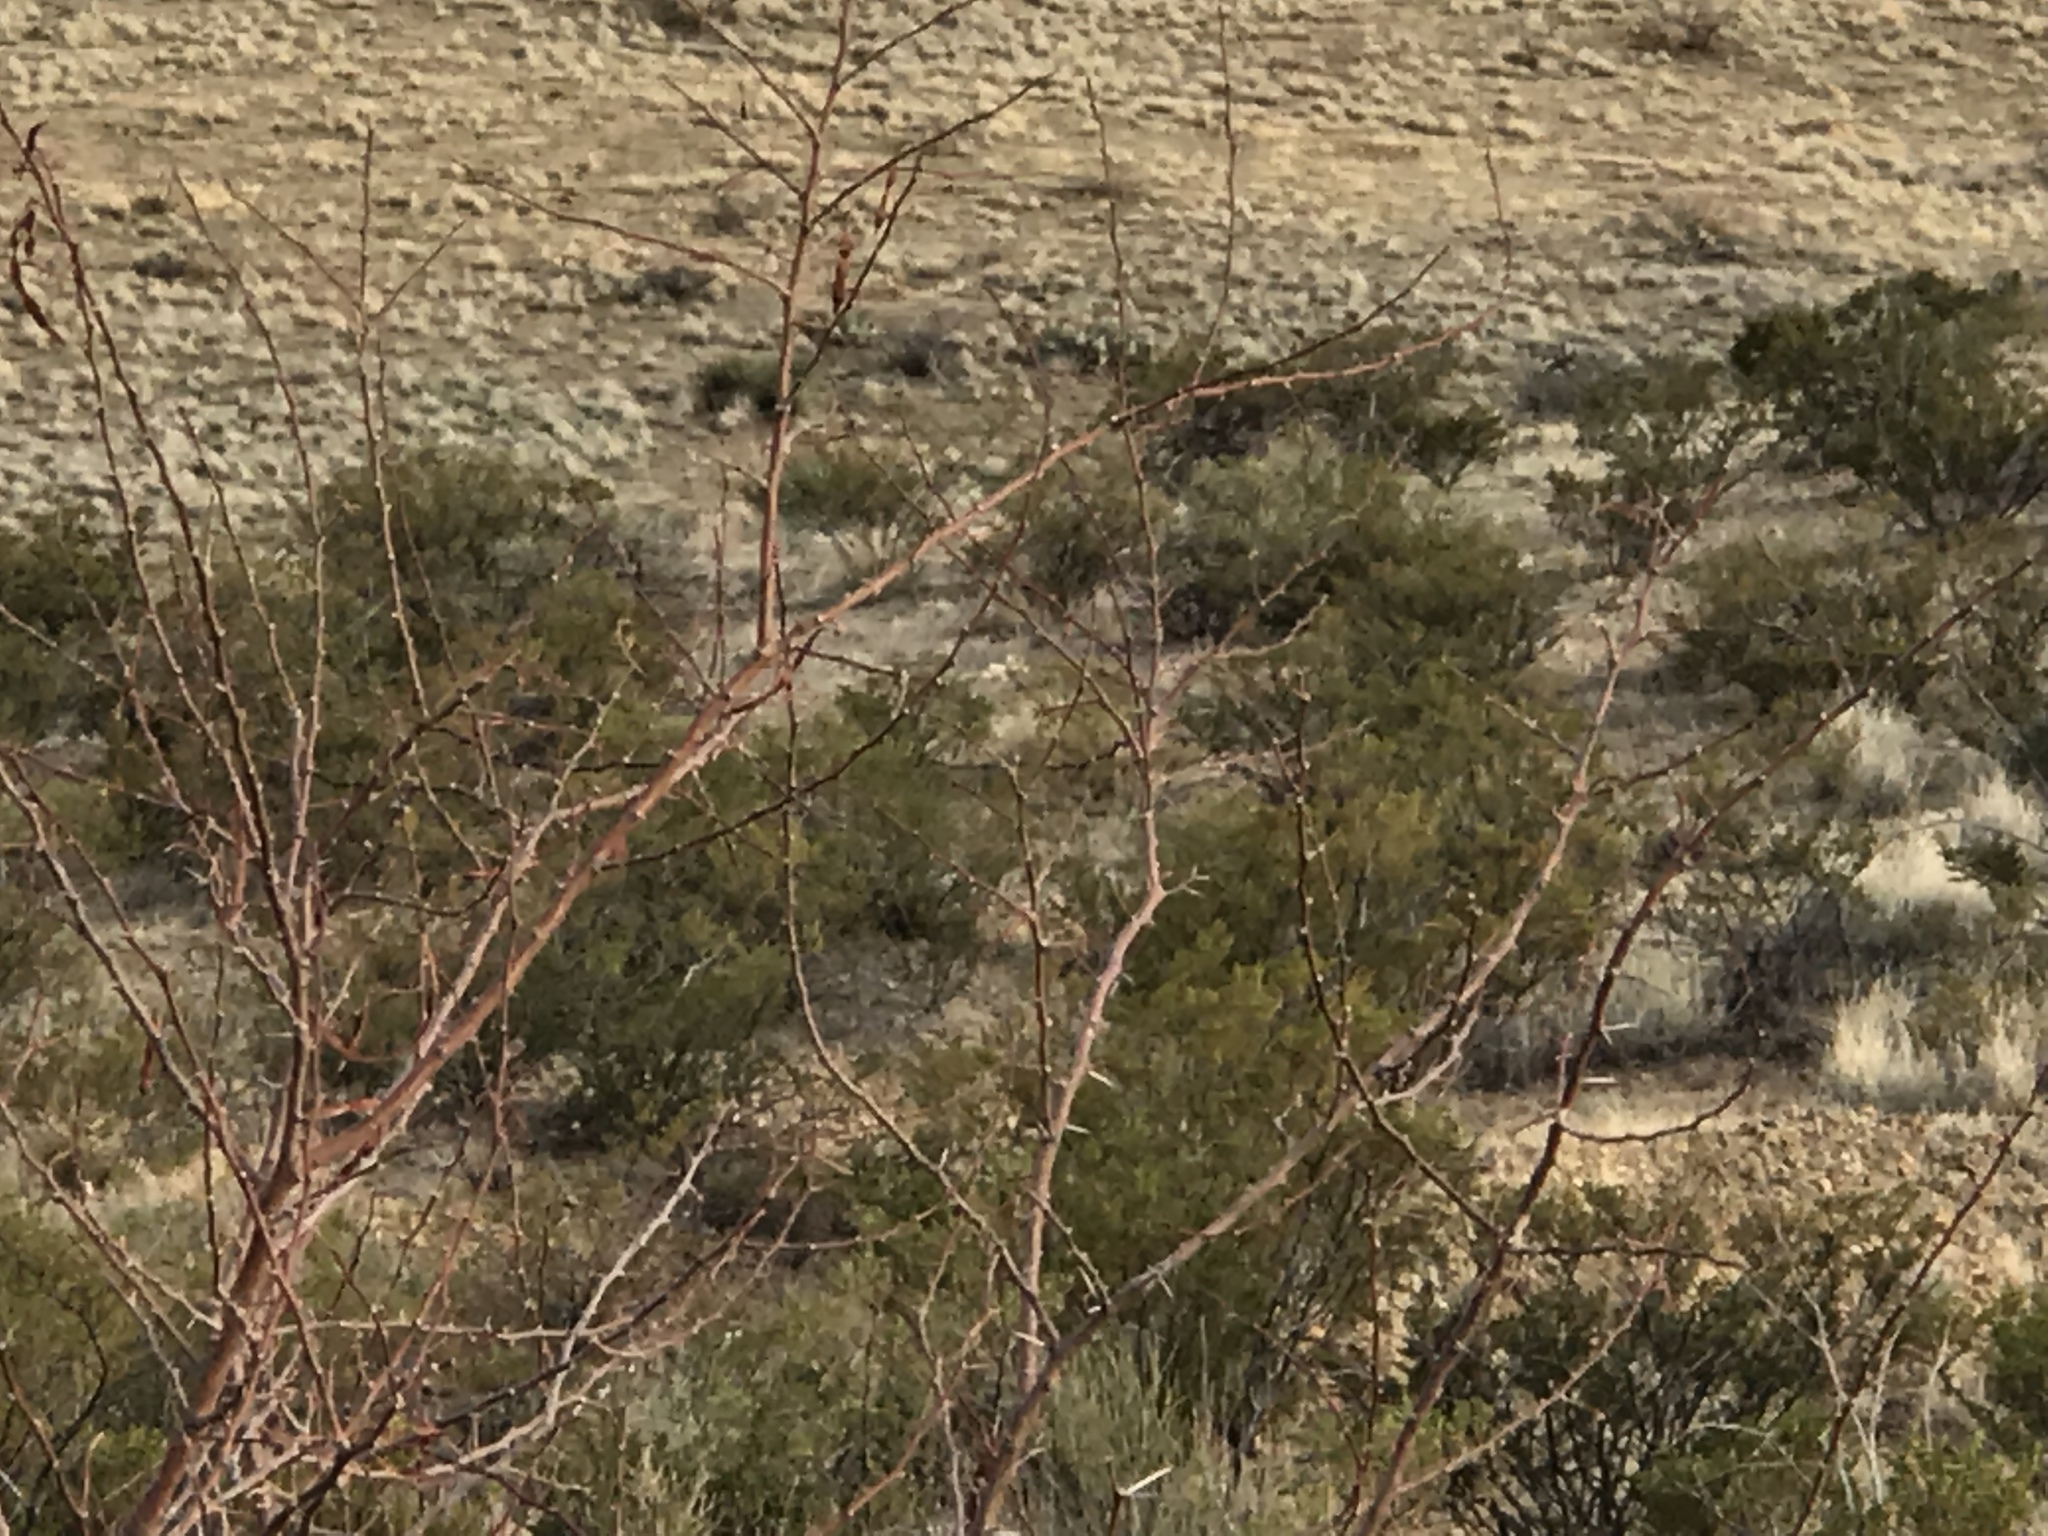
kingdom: Plantae
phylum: Tracheophyta
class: Magnoliopsida
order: Fabales
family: Fabaceae
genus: Vachellia
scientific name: Vachellia constricta
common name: Mescat acacia
